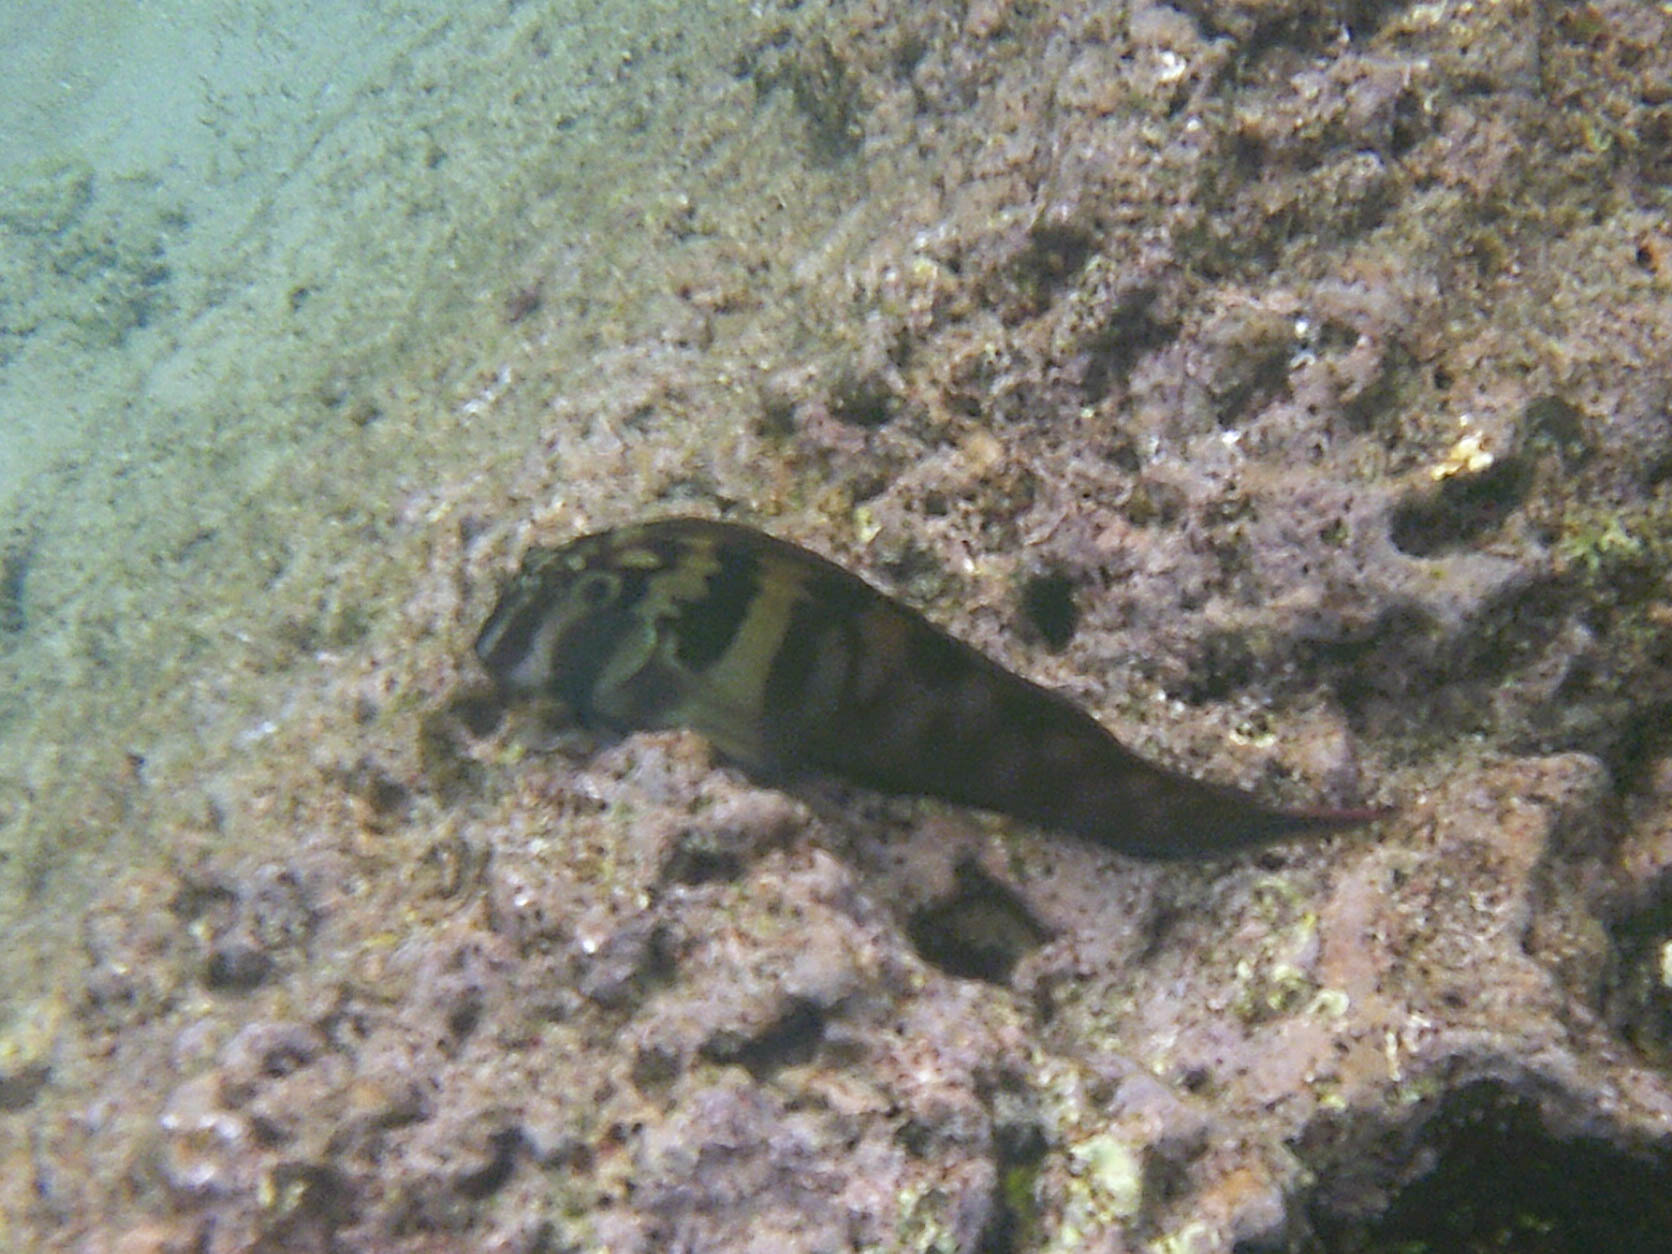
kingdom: Animalia
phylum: Chordata
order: Perciformes
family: Blenniidae
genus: Ophioblennius
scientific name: Ophioblennius steindachneri
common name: Panamic fanged blenny
